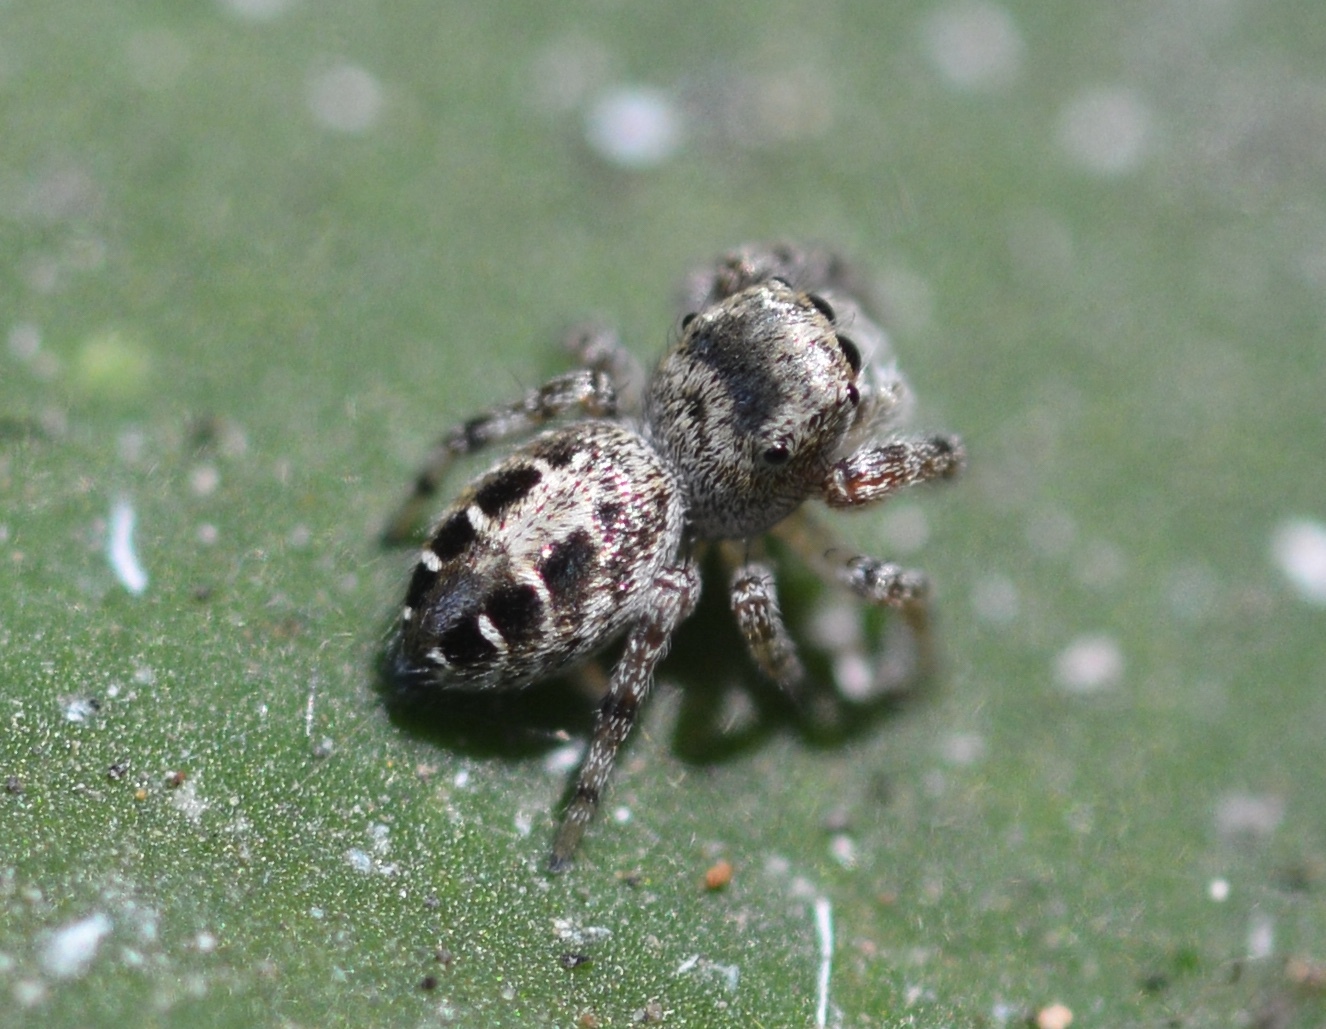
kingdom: Animalia
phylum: Arthropoda
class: Arachnida
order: Araneae
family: Salticidae
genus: Pelegrina
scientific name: Pelegrina aeneola
